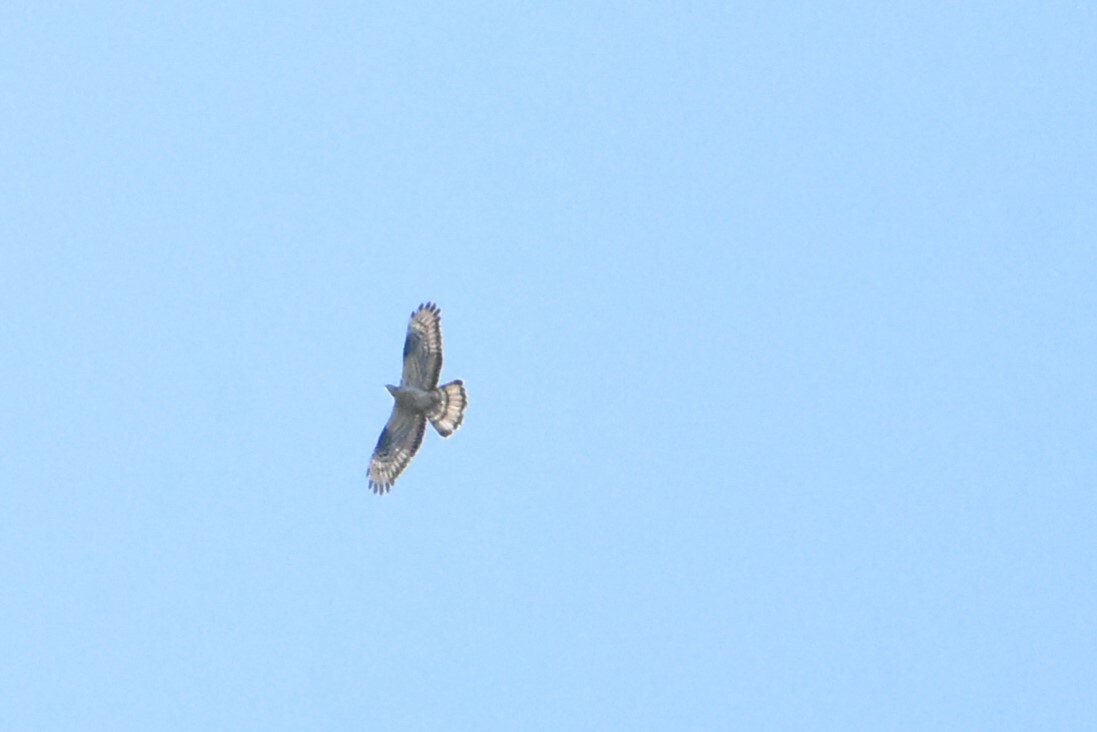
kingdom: Animalia
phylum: Chordata
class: Aves
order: Accipitriformes
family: Accipitridae
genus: Pernis
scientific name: Pernis apivorus
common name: European honey buzzard
